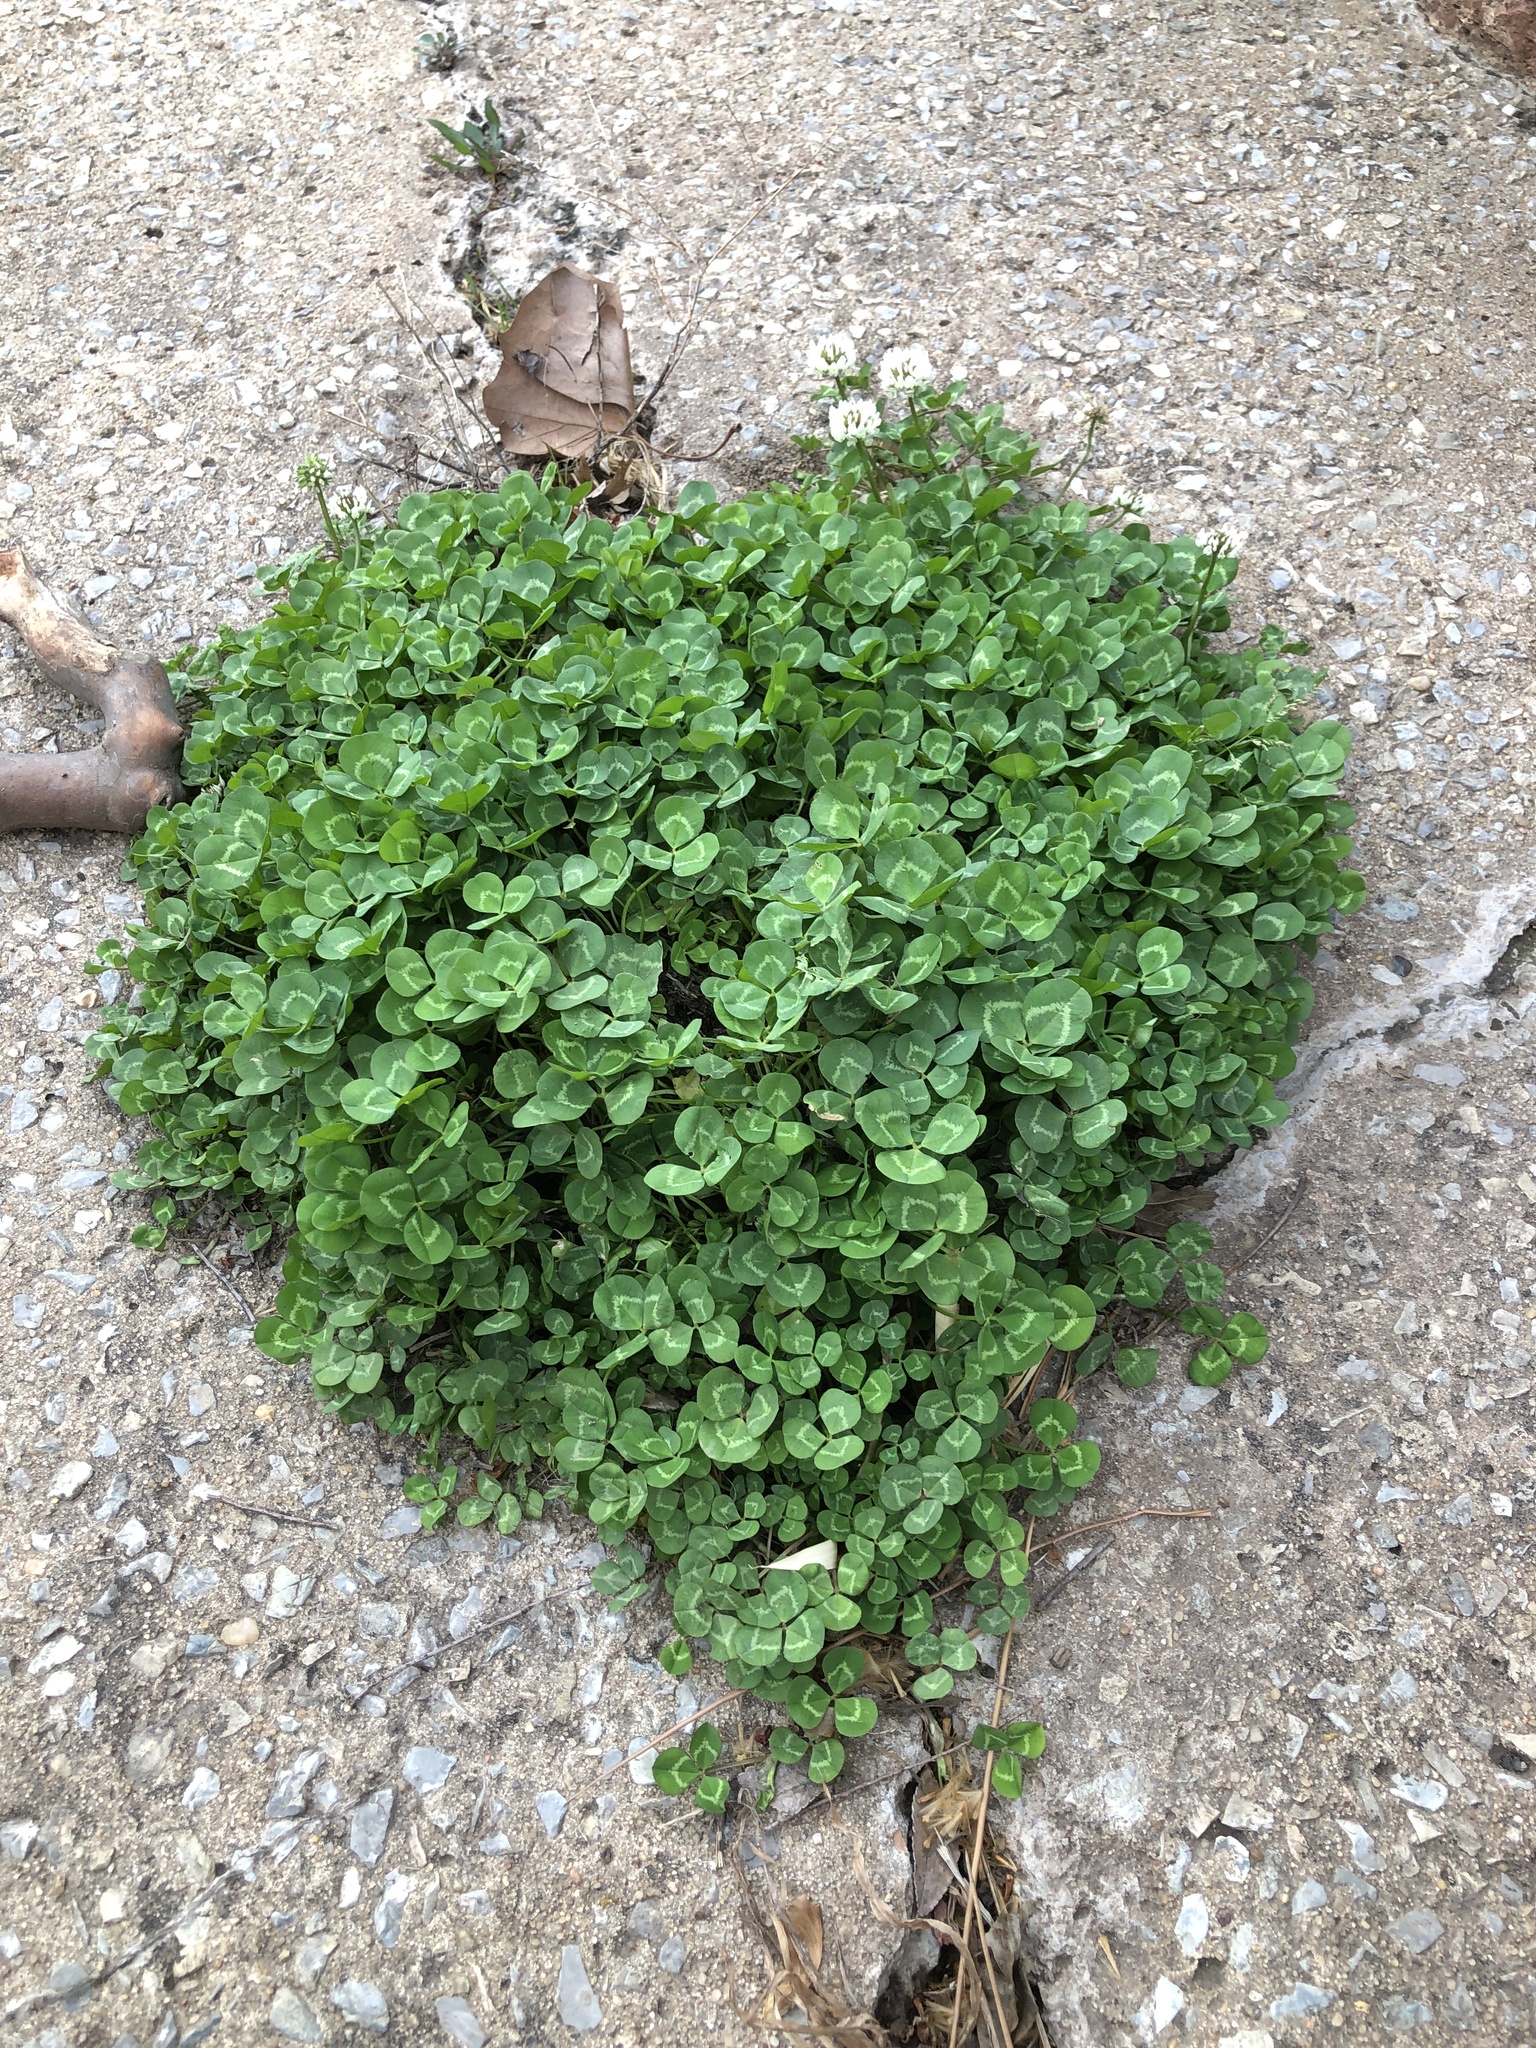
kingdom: Plantae
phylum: Tracheophyta
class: Magnoliopsida
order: Fabales
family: Fabaceae
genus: Trifolium
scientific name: Trifolium repens
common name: White clover
